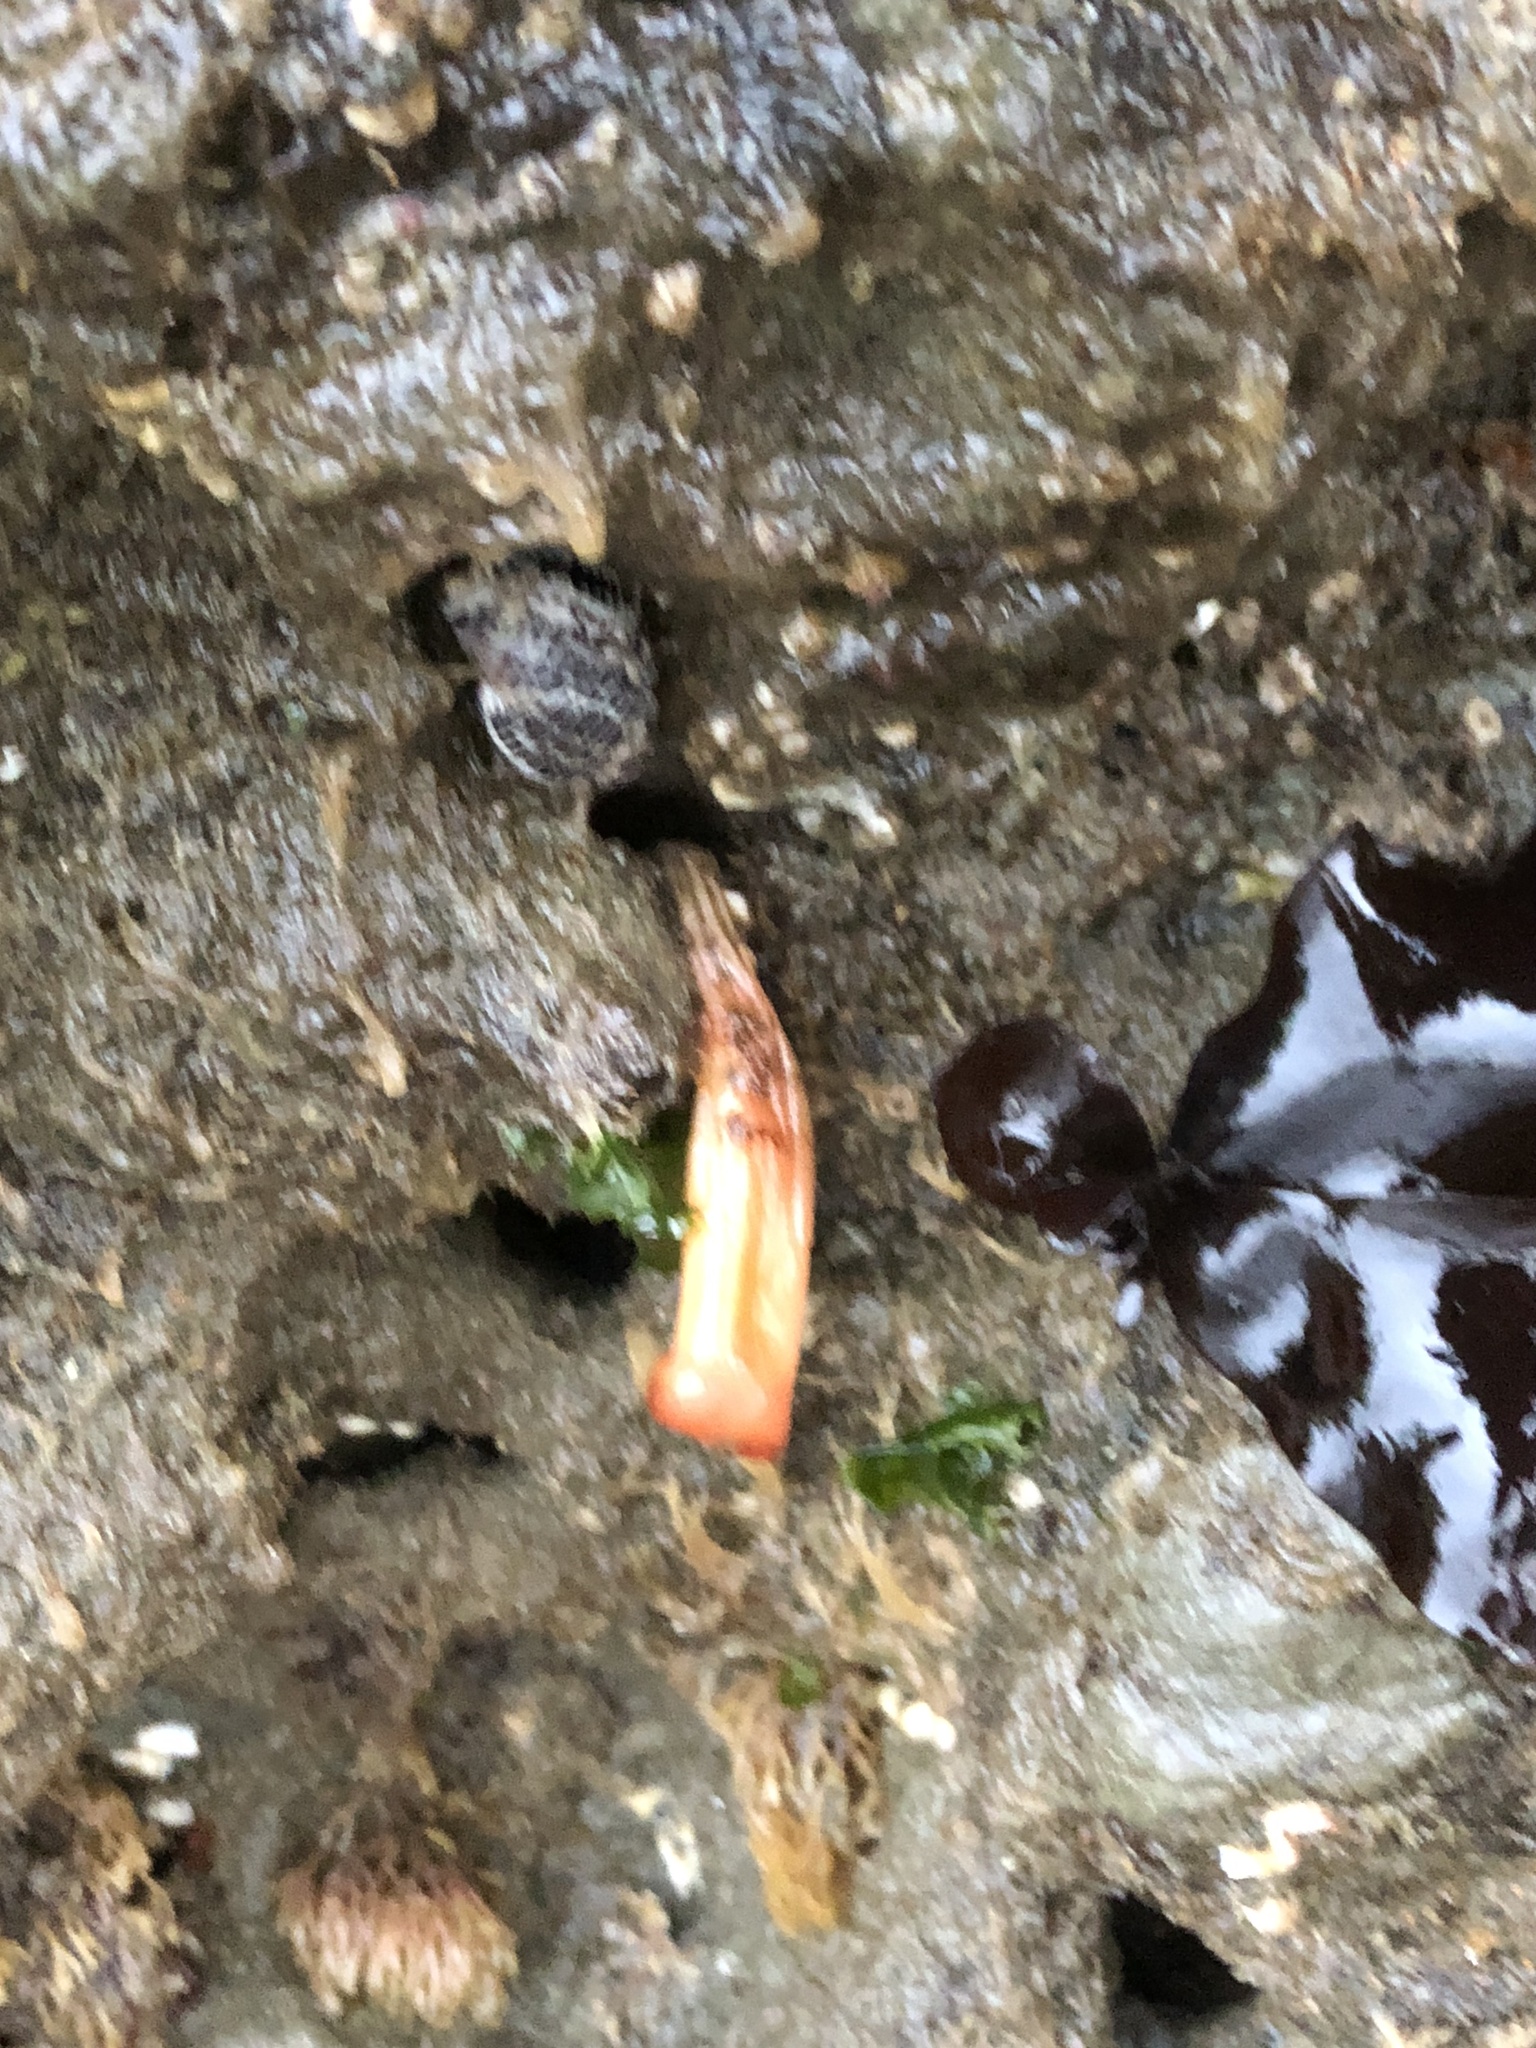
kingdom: Animalia
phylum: Chordata
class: Ascidiacea
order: Stolidobranchia
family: Styelidae
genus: Styela
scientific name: Styela montereyensis
